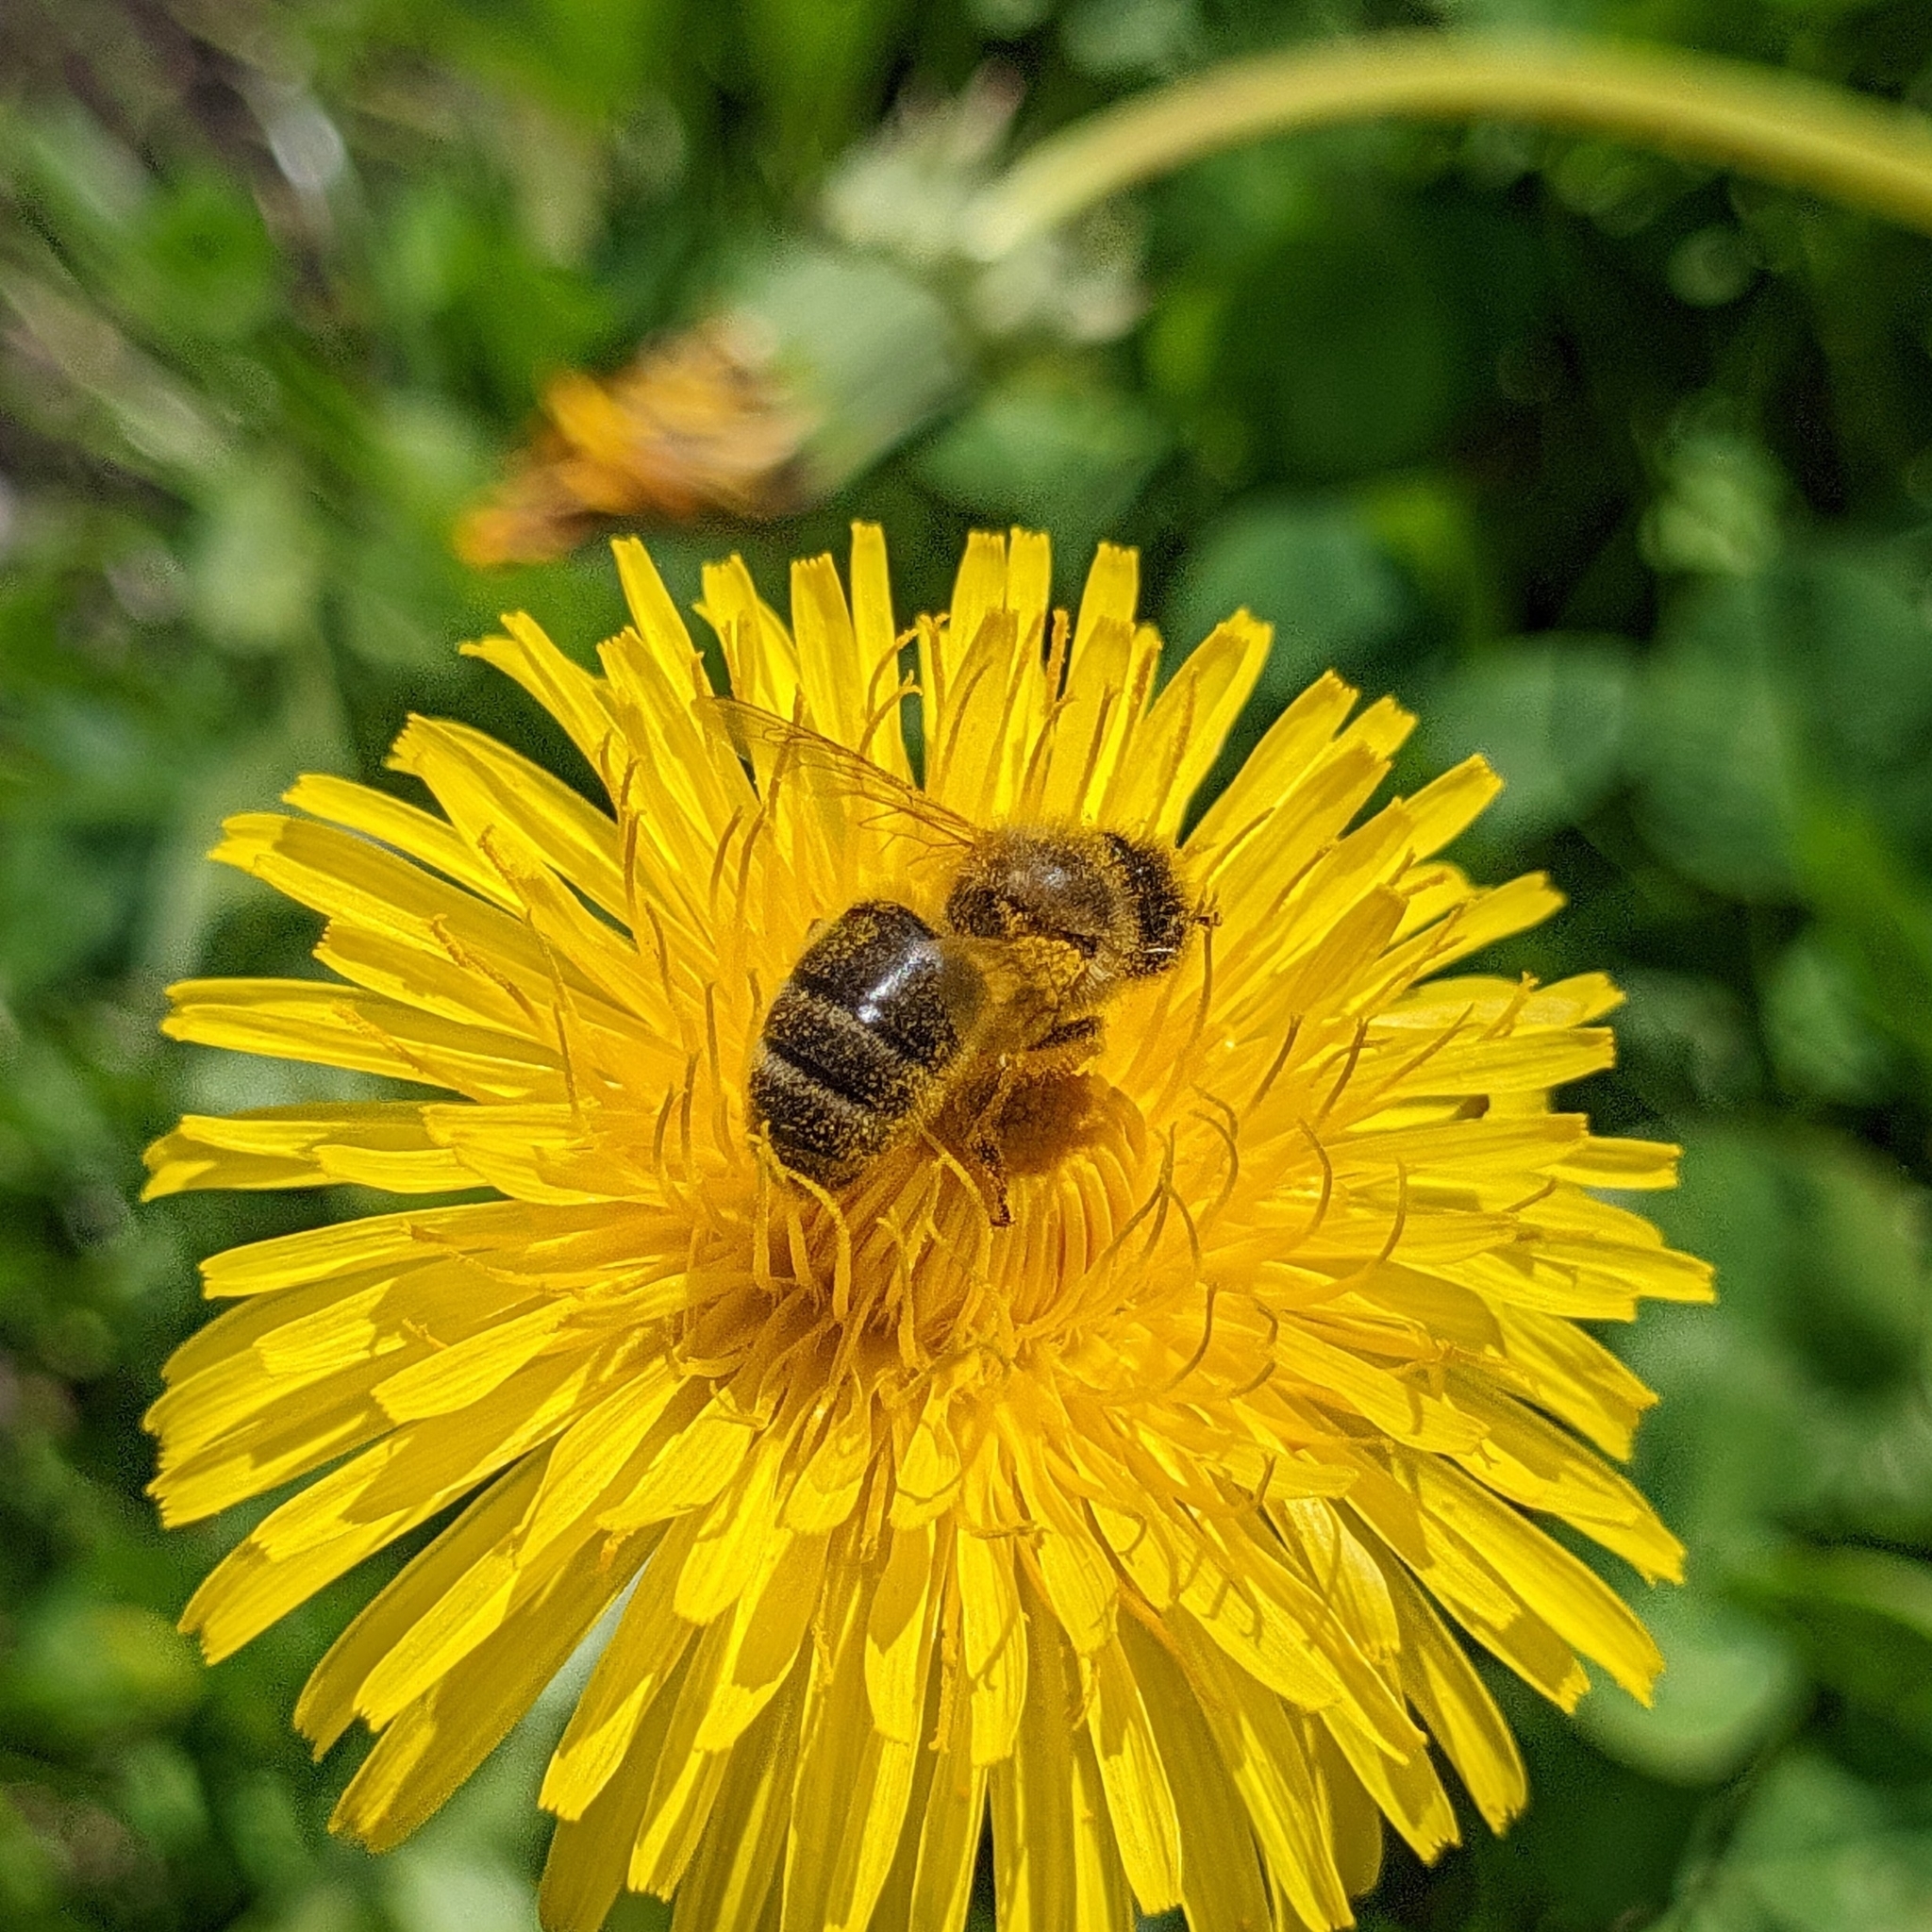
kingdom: Animalia
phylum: Arthropoda
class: Insecta
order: Hymenoptera
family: Apidae
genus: Apis
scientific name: Apis mellifera
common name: Honey bee
